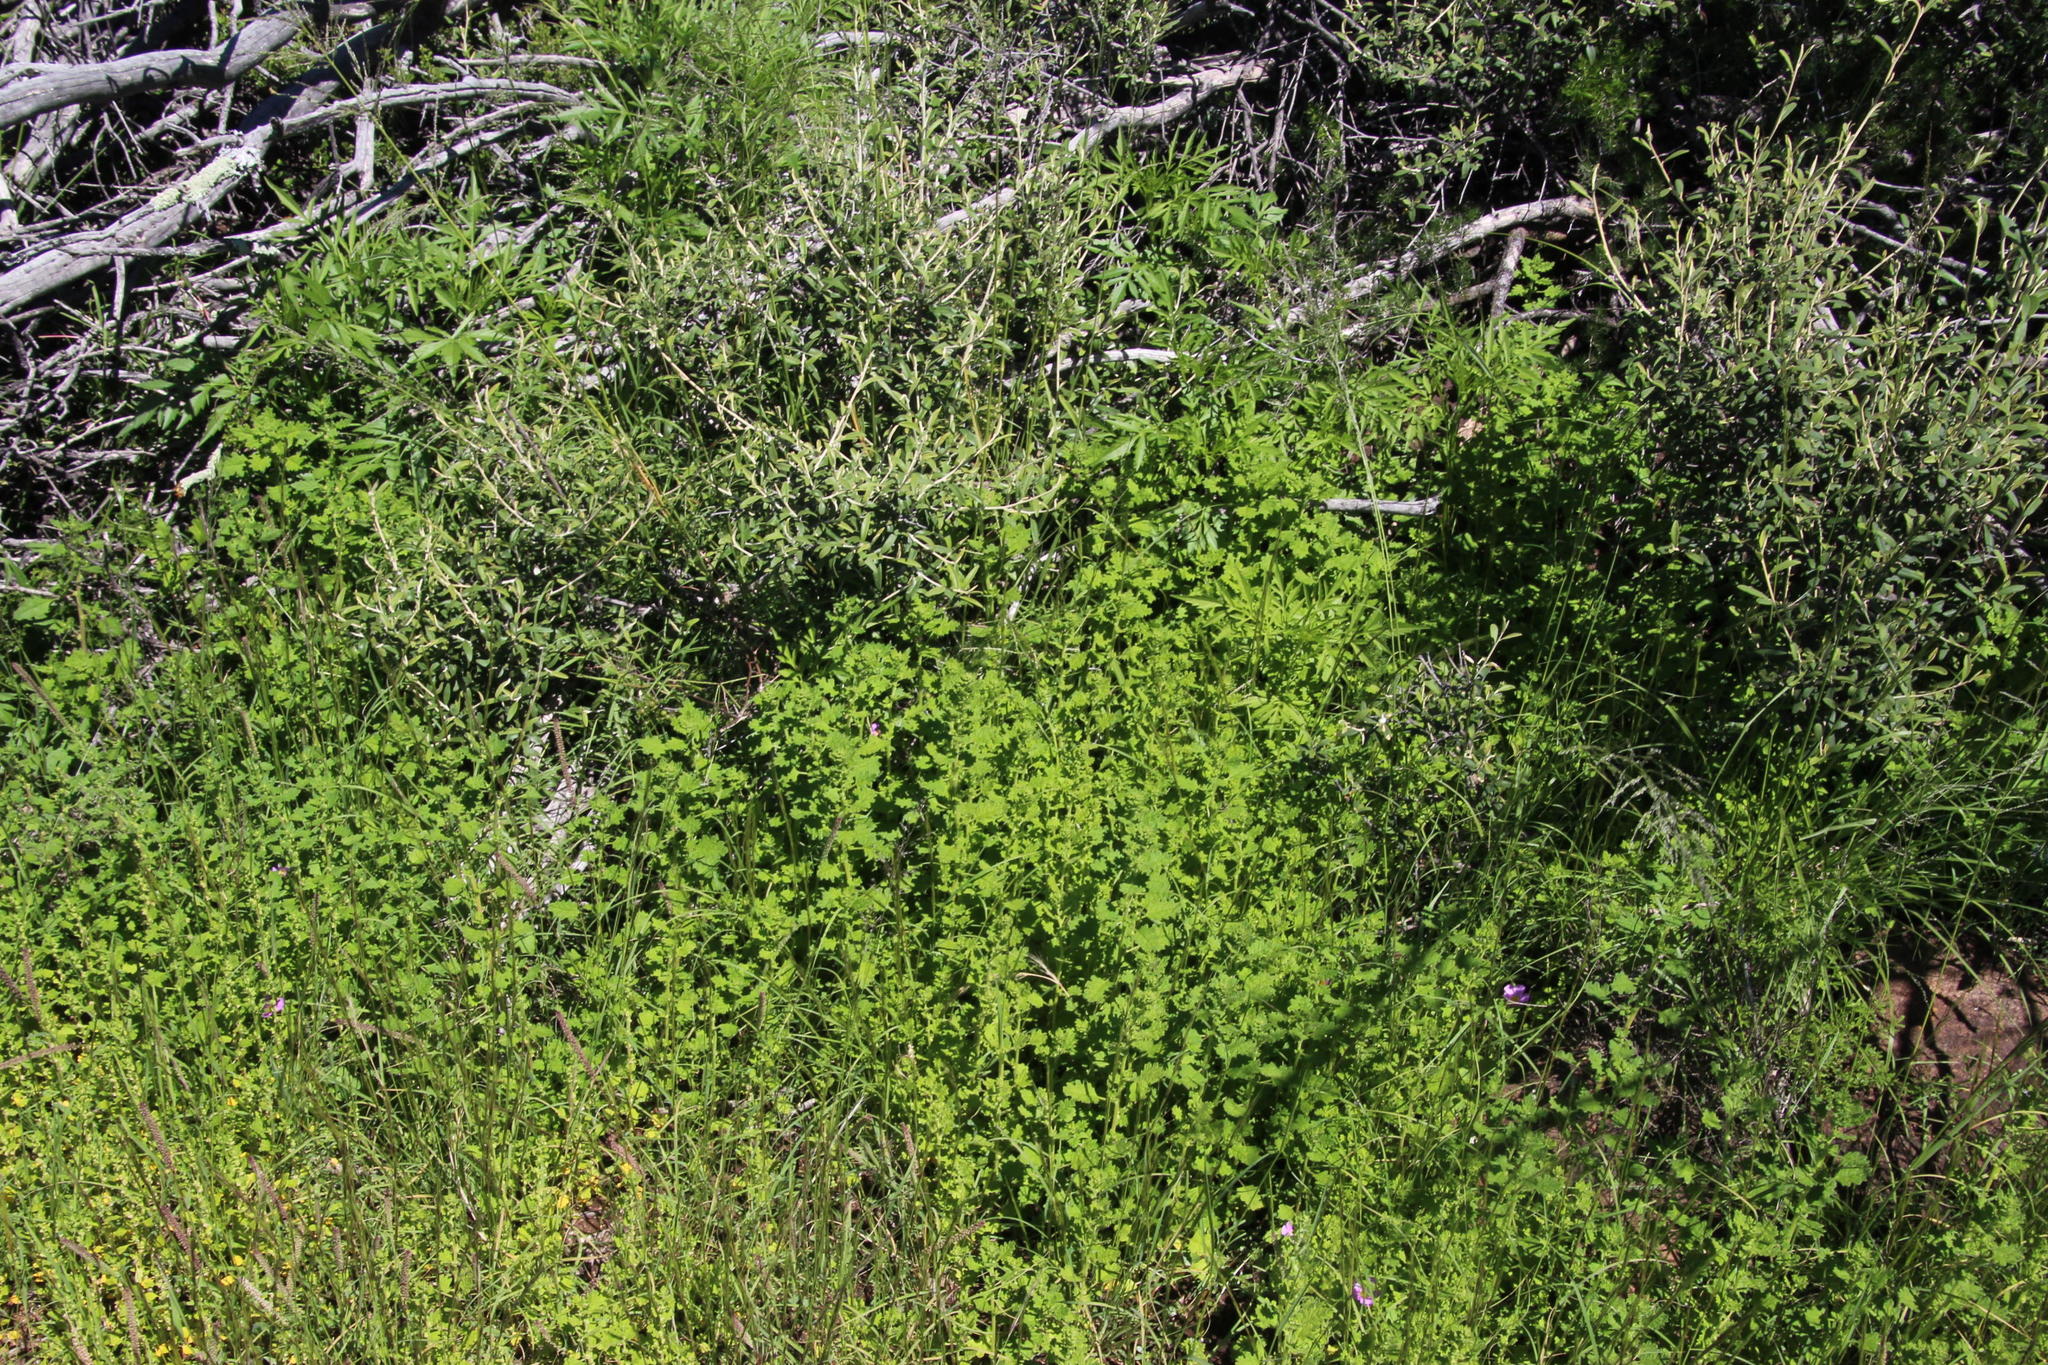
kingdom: Plantae
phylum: Tracheophyta
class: Magnoliopsida
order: Caryophyllales
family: Amaranthaceae
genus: Dysphania
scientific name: Dysphania carinata
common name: Keeled wormseed
